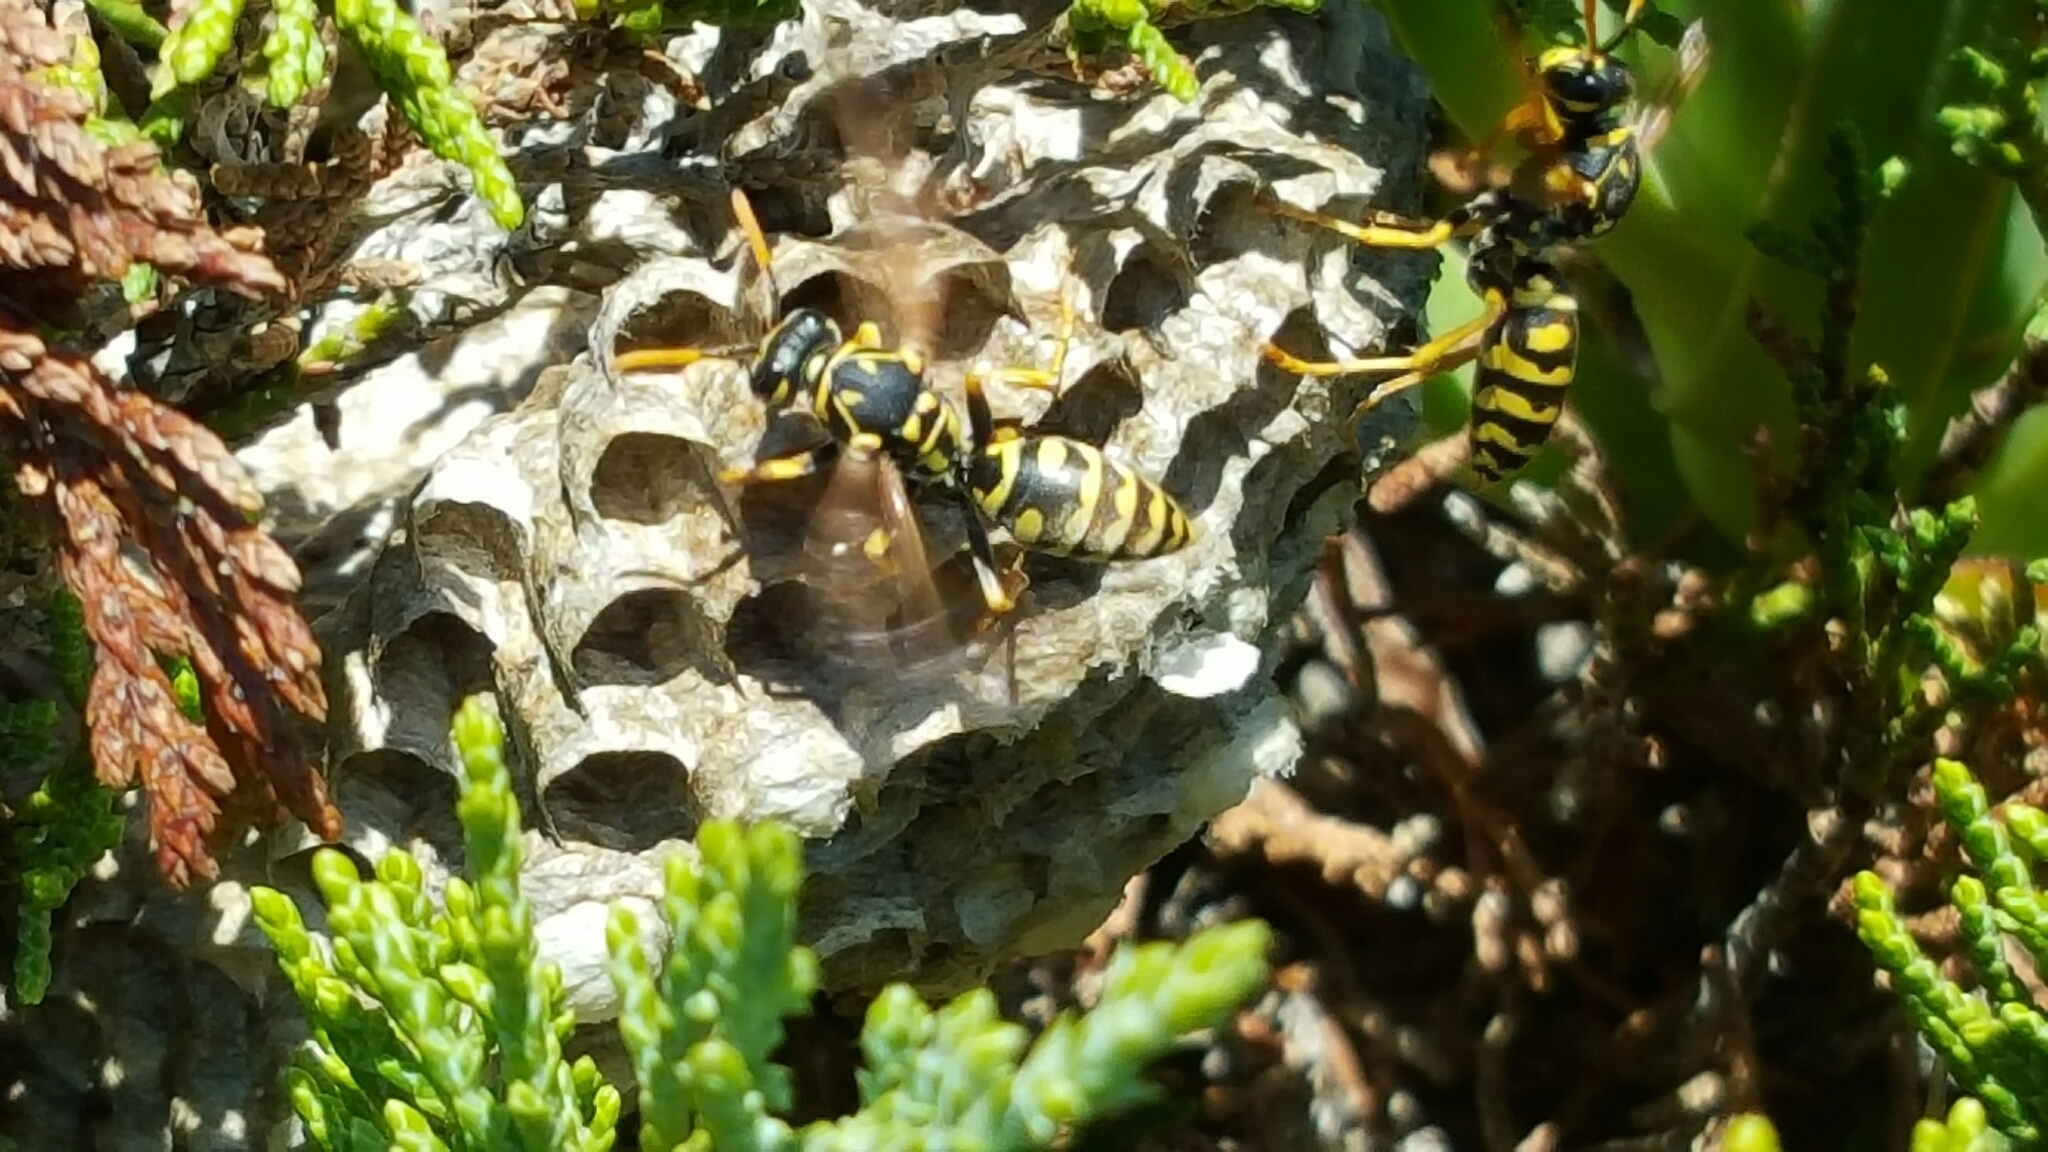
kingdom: Animalia
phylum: Arthropoda
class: Insecta
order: Hymenoptera
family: Eumenidae
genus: Polistes
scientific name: Polistes dominula
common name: Paper wasp
